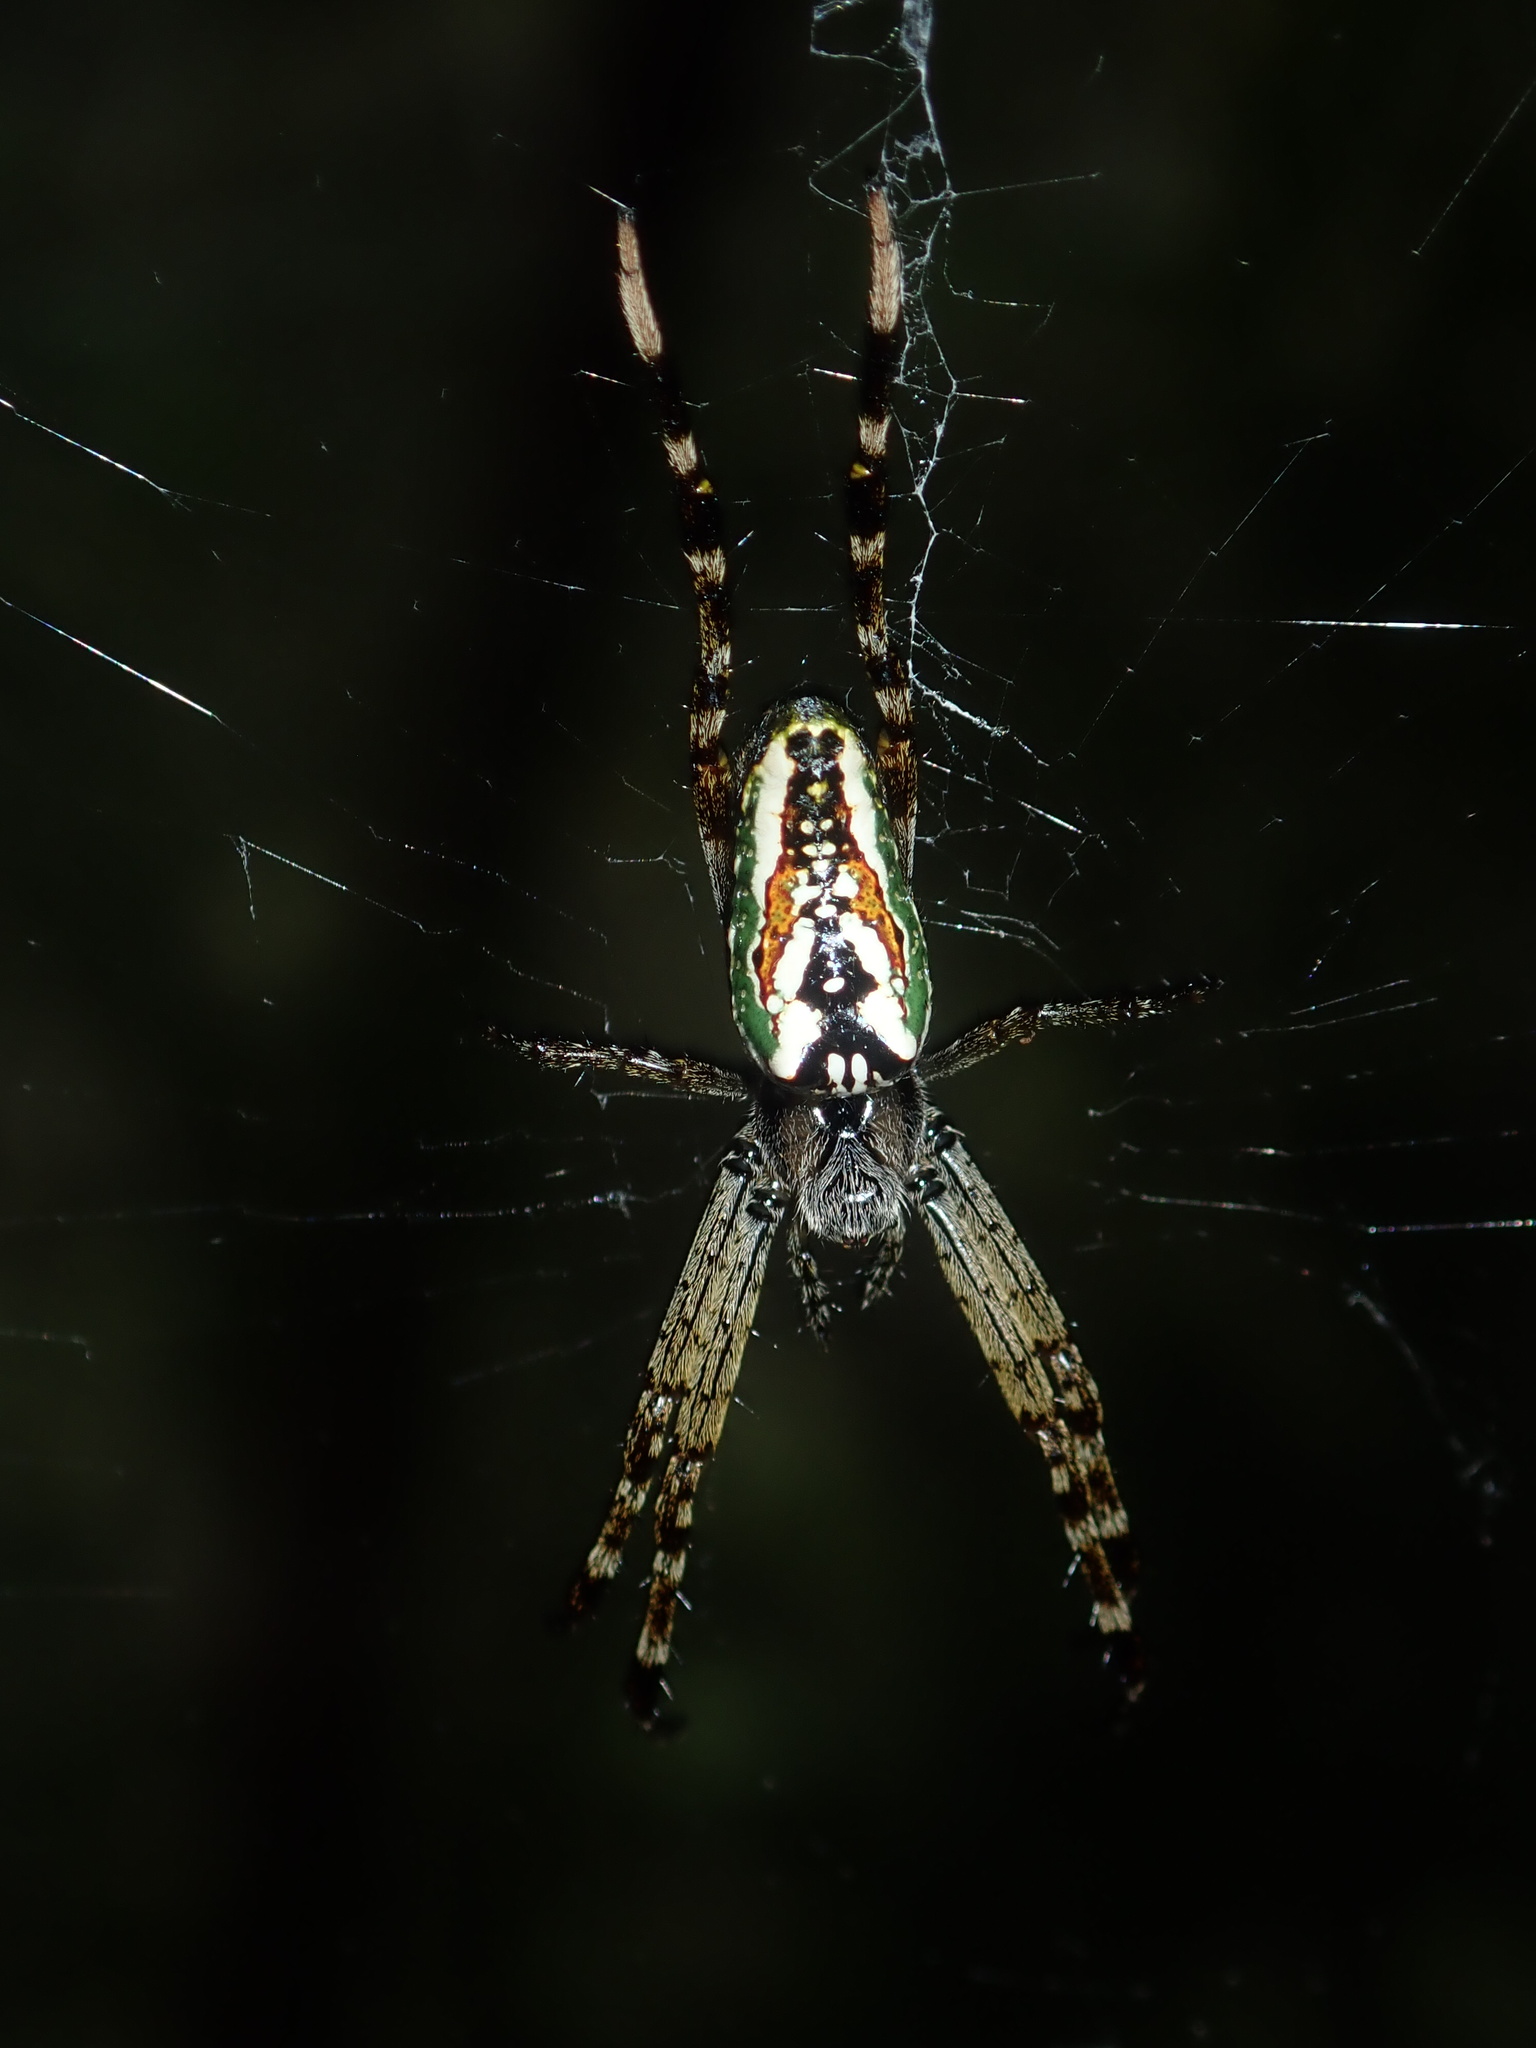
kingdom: Animalia
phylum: Arthropoda
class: Arachnida
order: Araneae
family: Araneidae
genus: Plebs
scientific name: Plebs bradleyi
